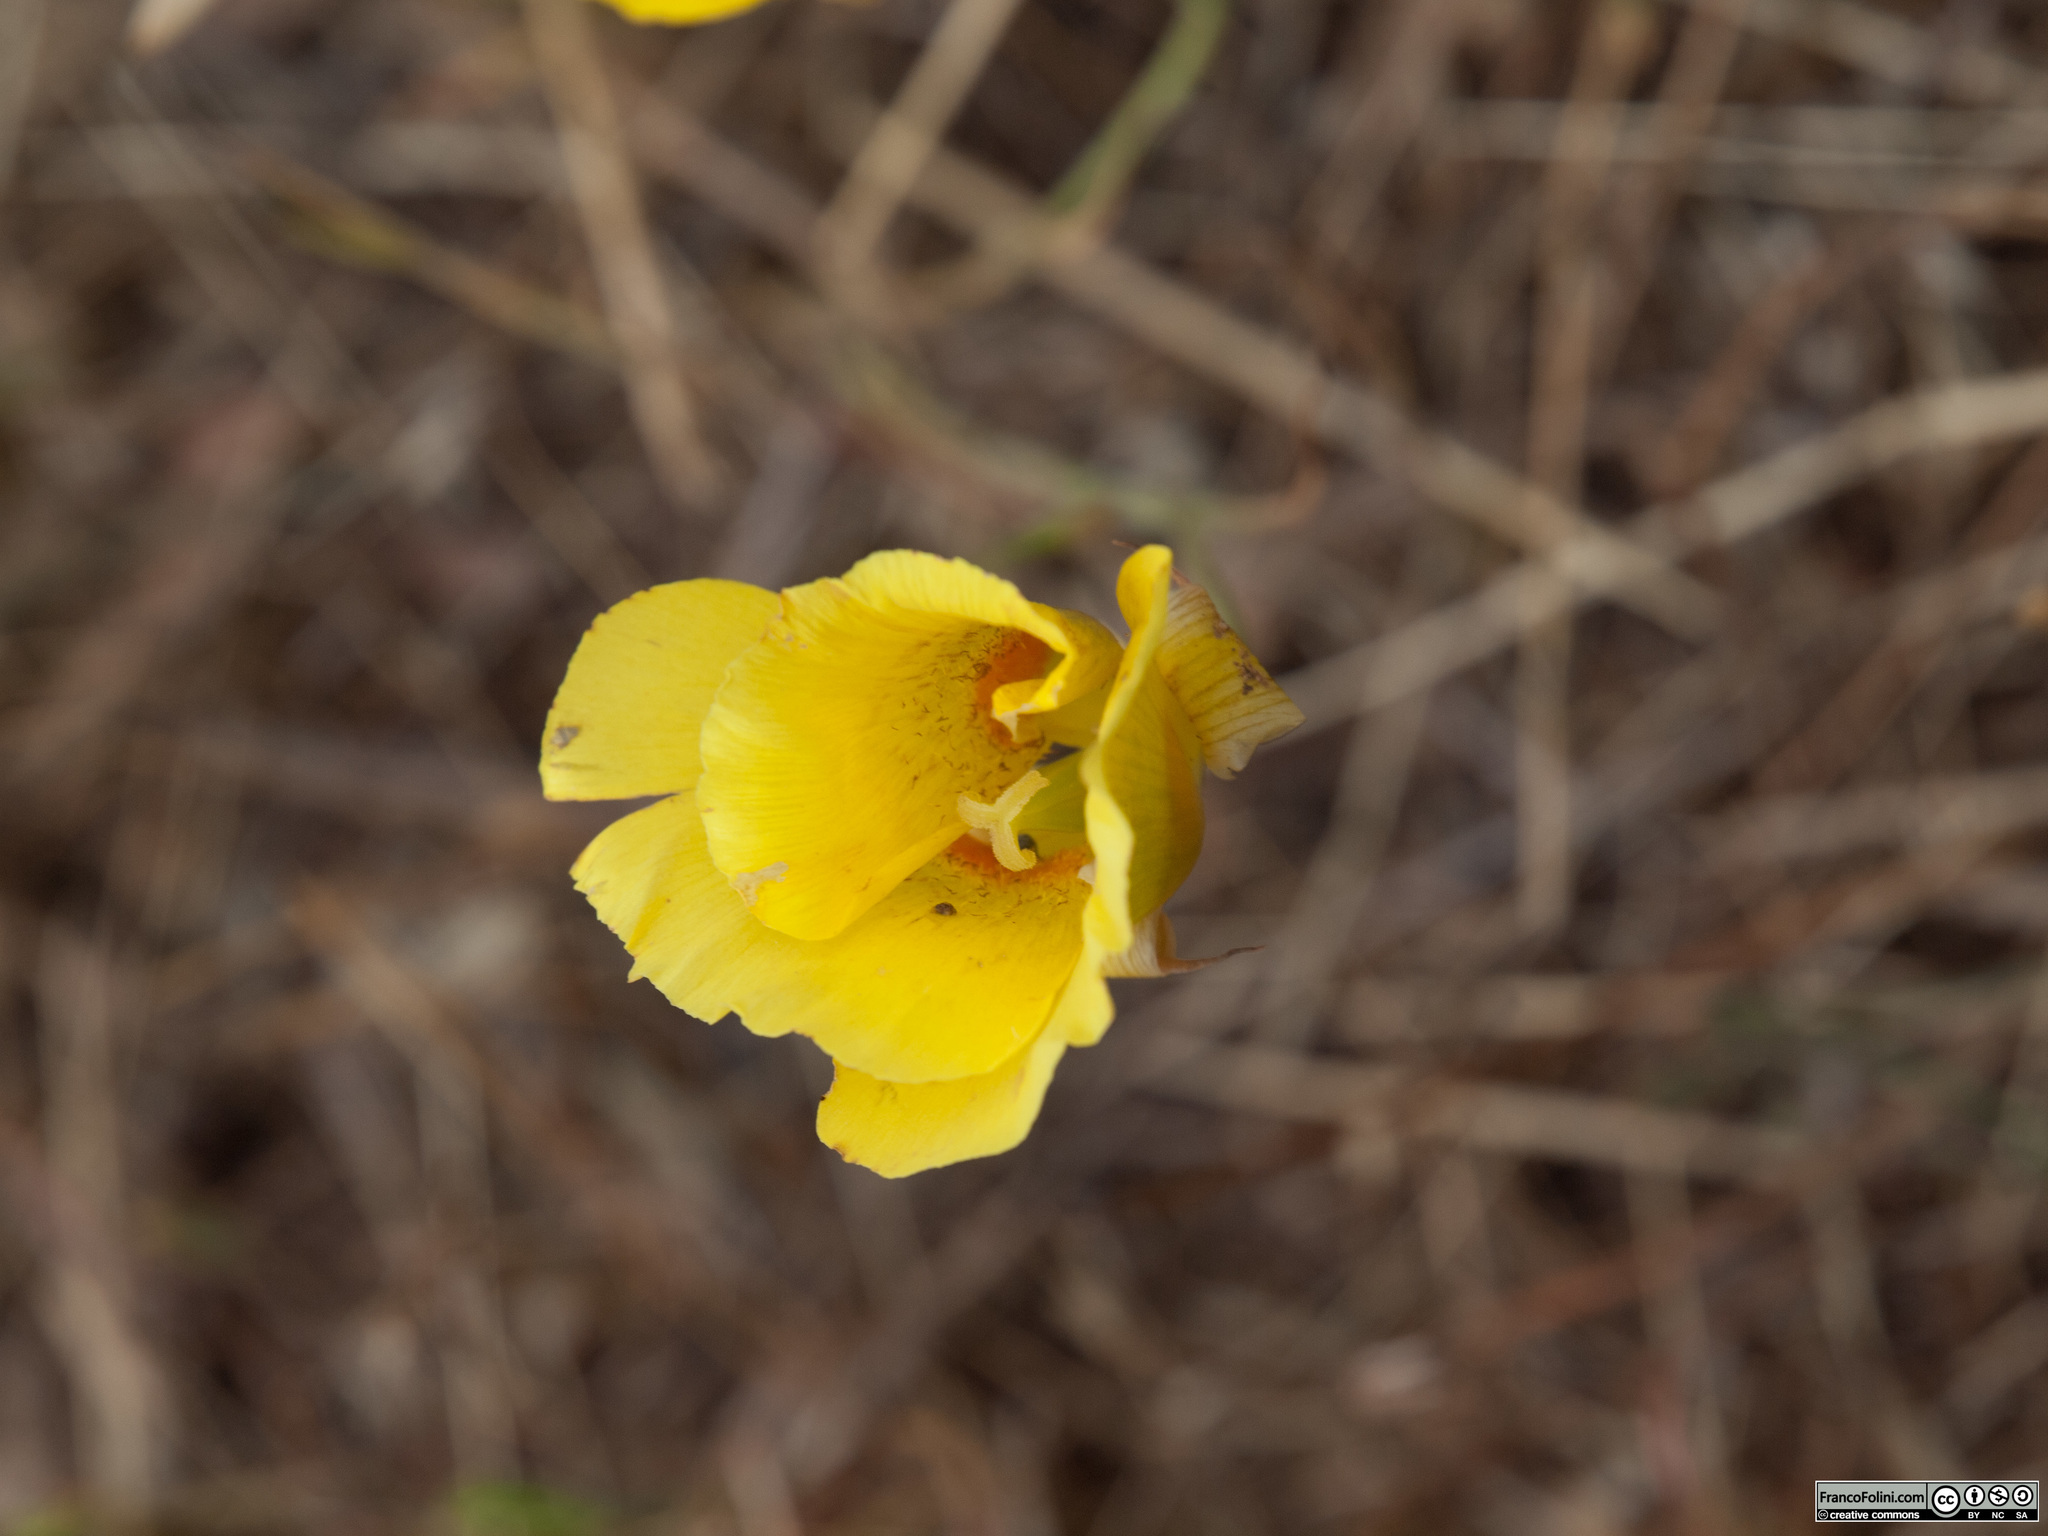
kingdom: Plantae
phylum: Tracheophyta
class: Liliopsida
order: Liliales
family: Liliaceae
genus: Calochortus
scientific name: Calochortus luteus
